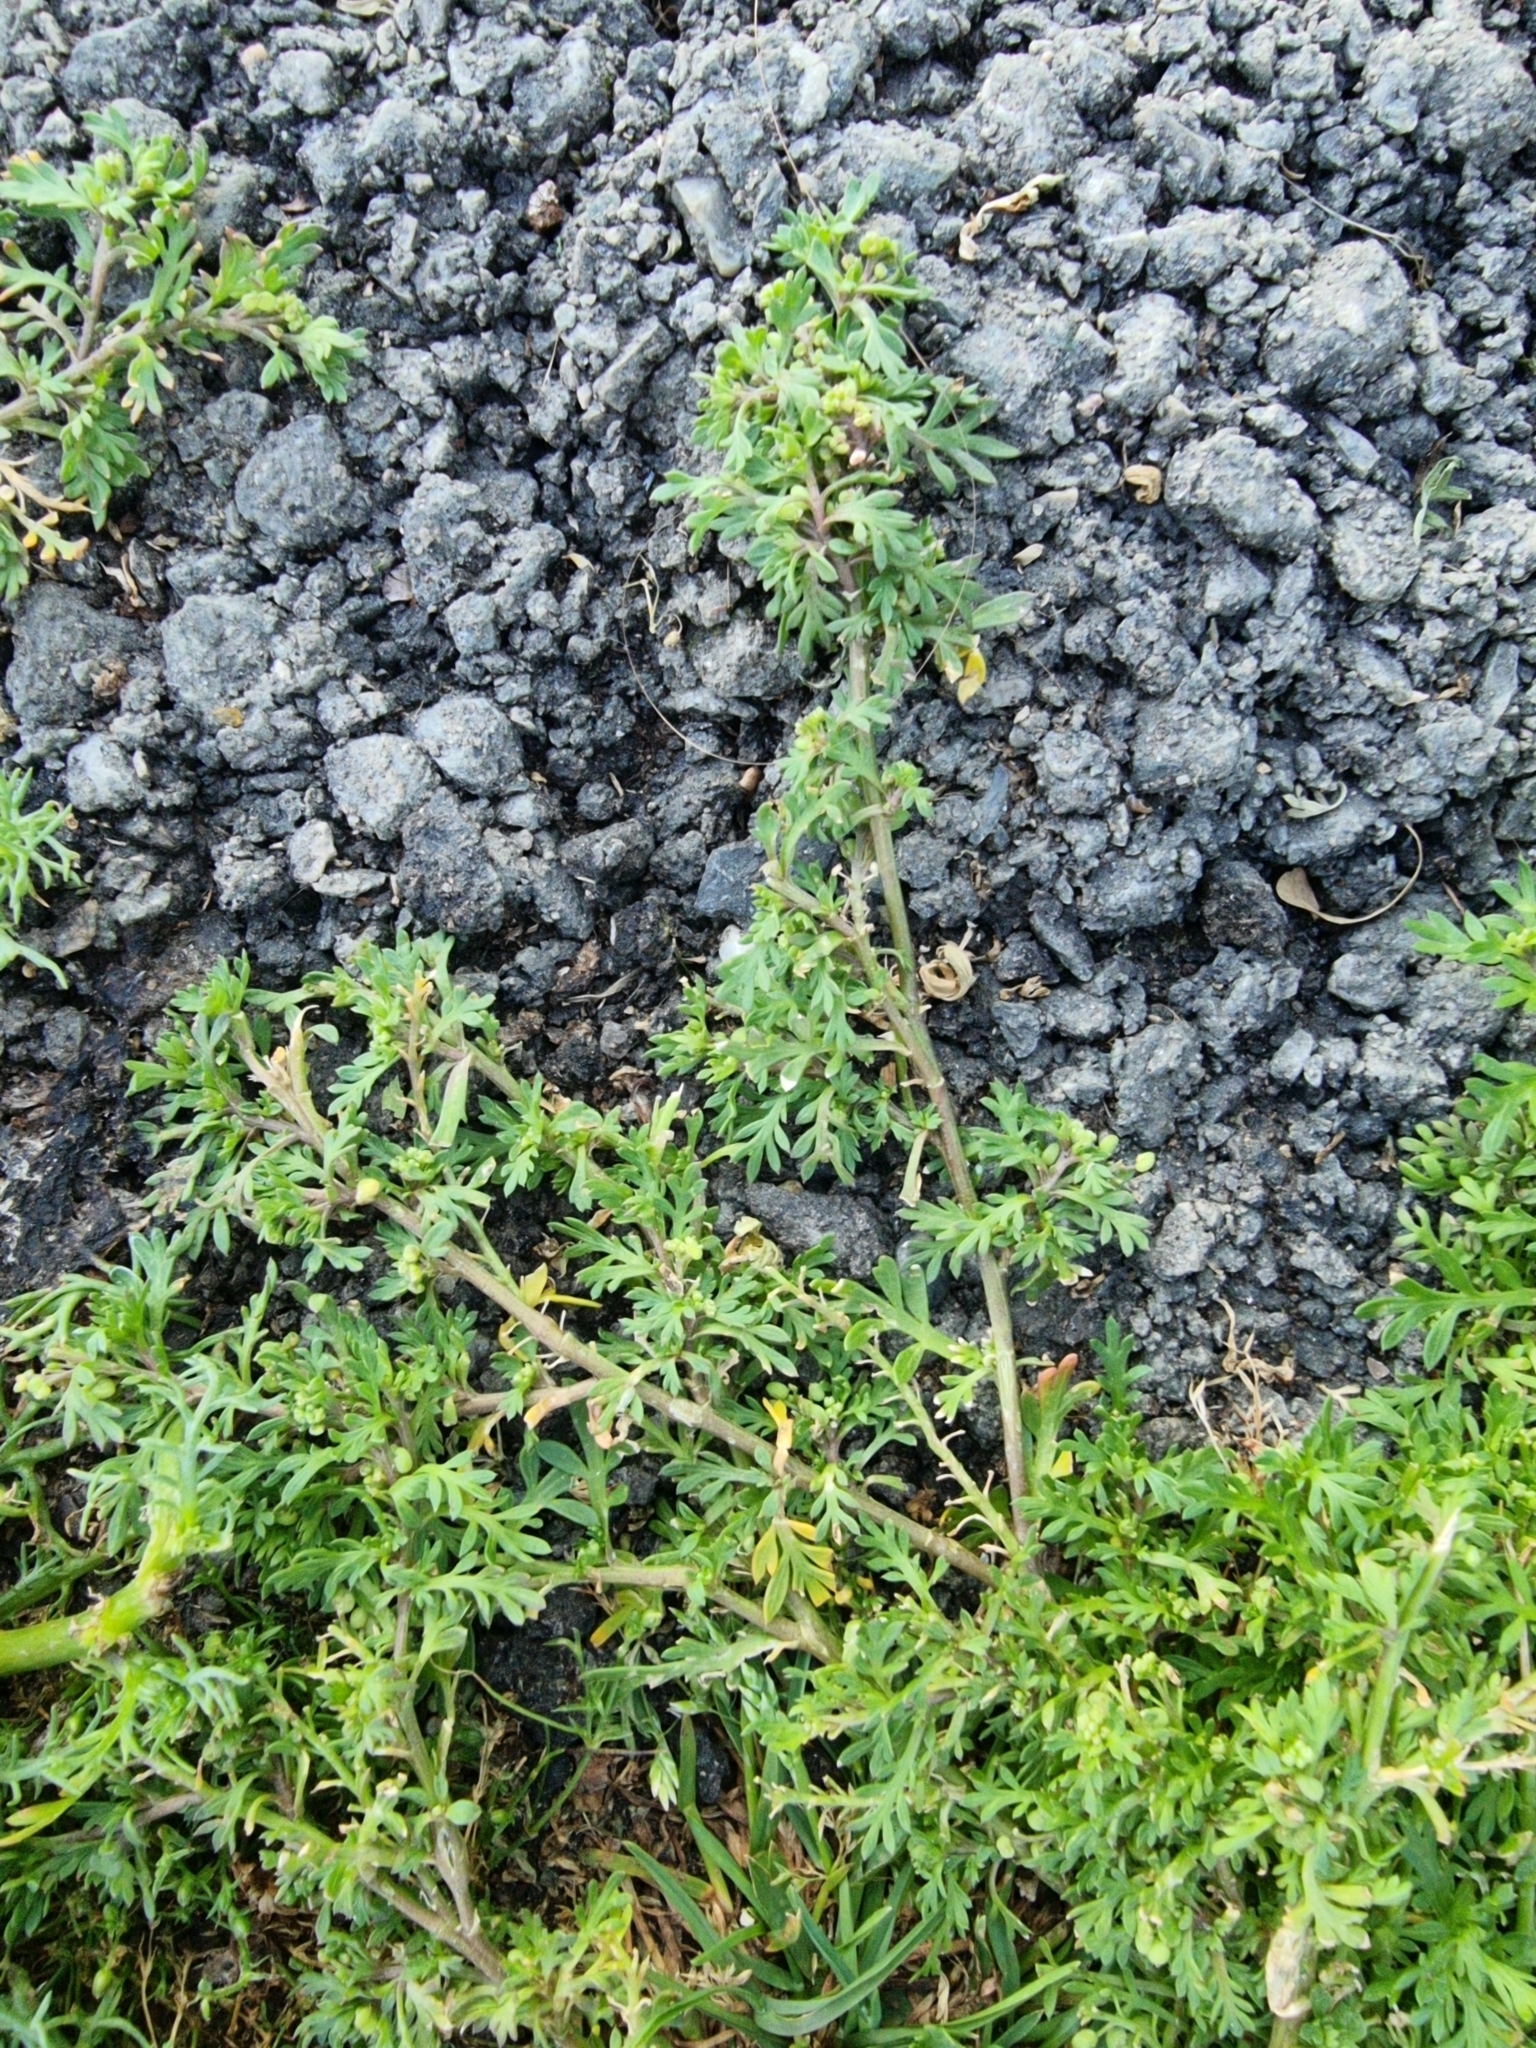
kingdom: Plantae
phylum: Tracheophyta
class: Magnoliopsida
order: Brassicales
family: Brassicaceae
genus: Lepidium
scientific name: Lepidium didymum
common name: Lesser swinecress
